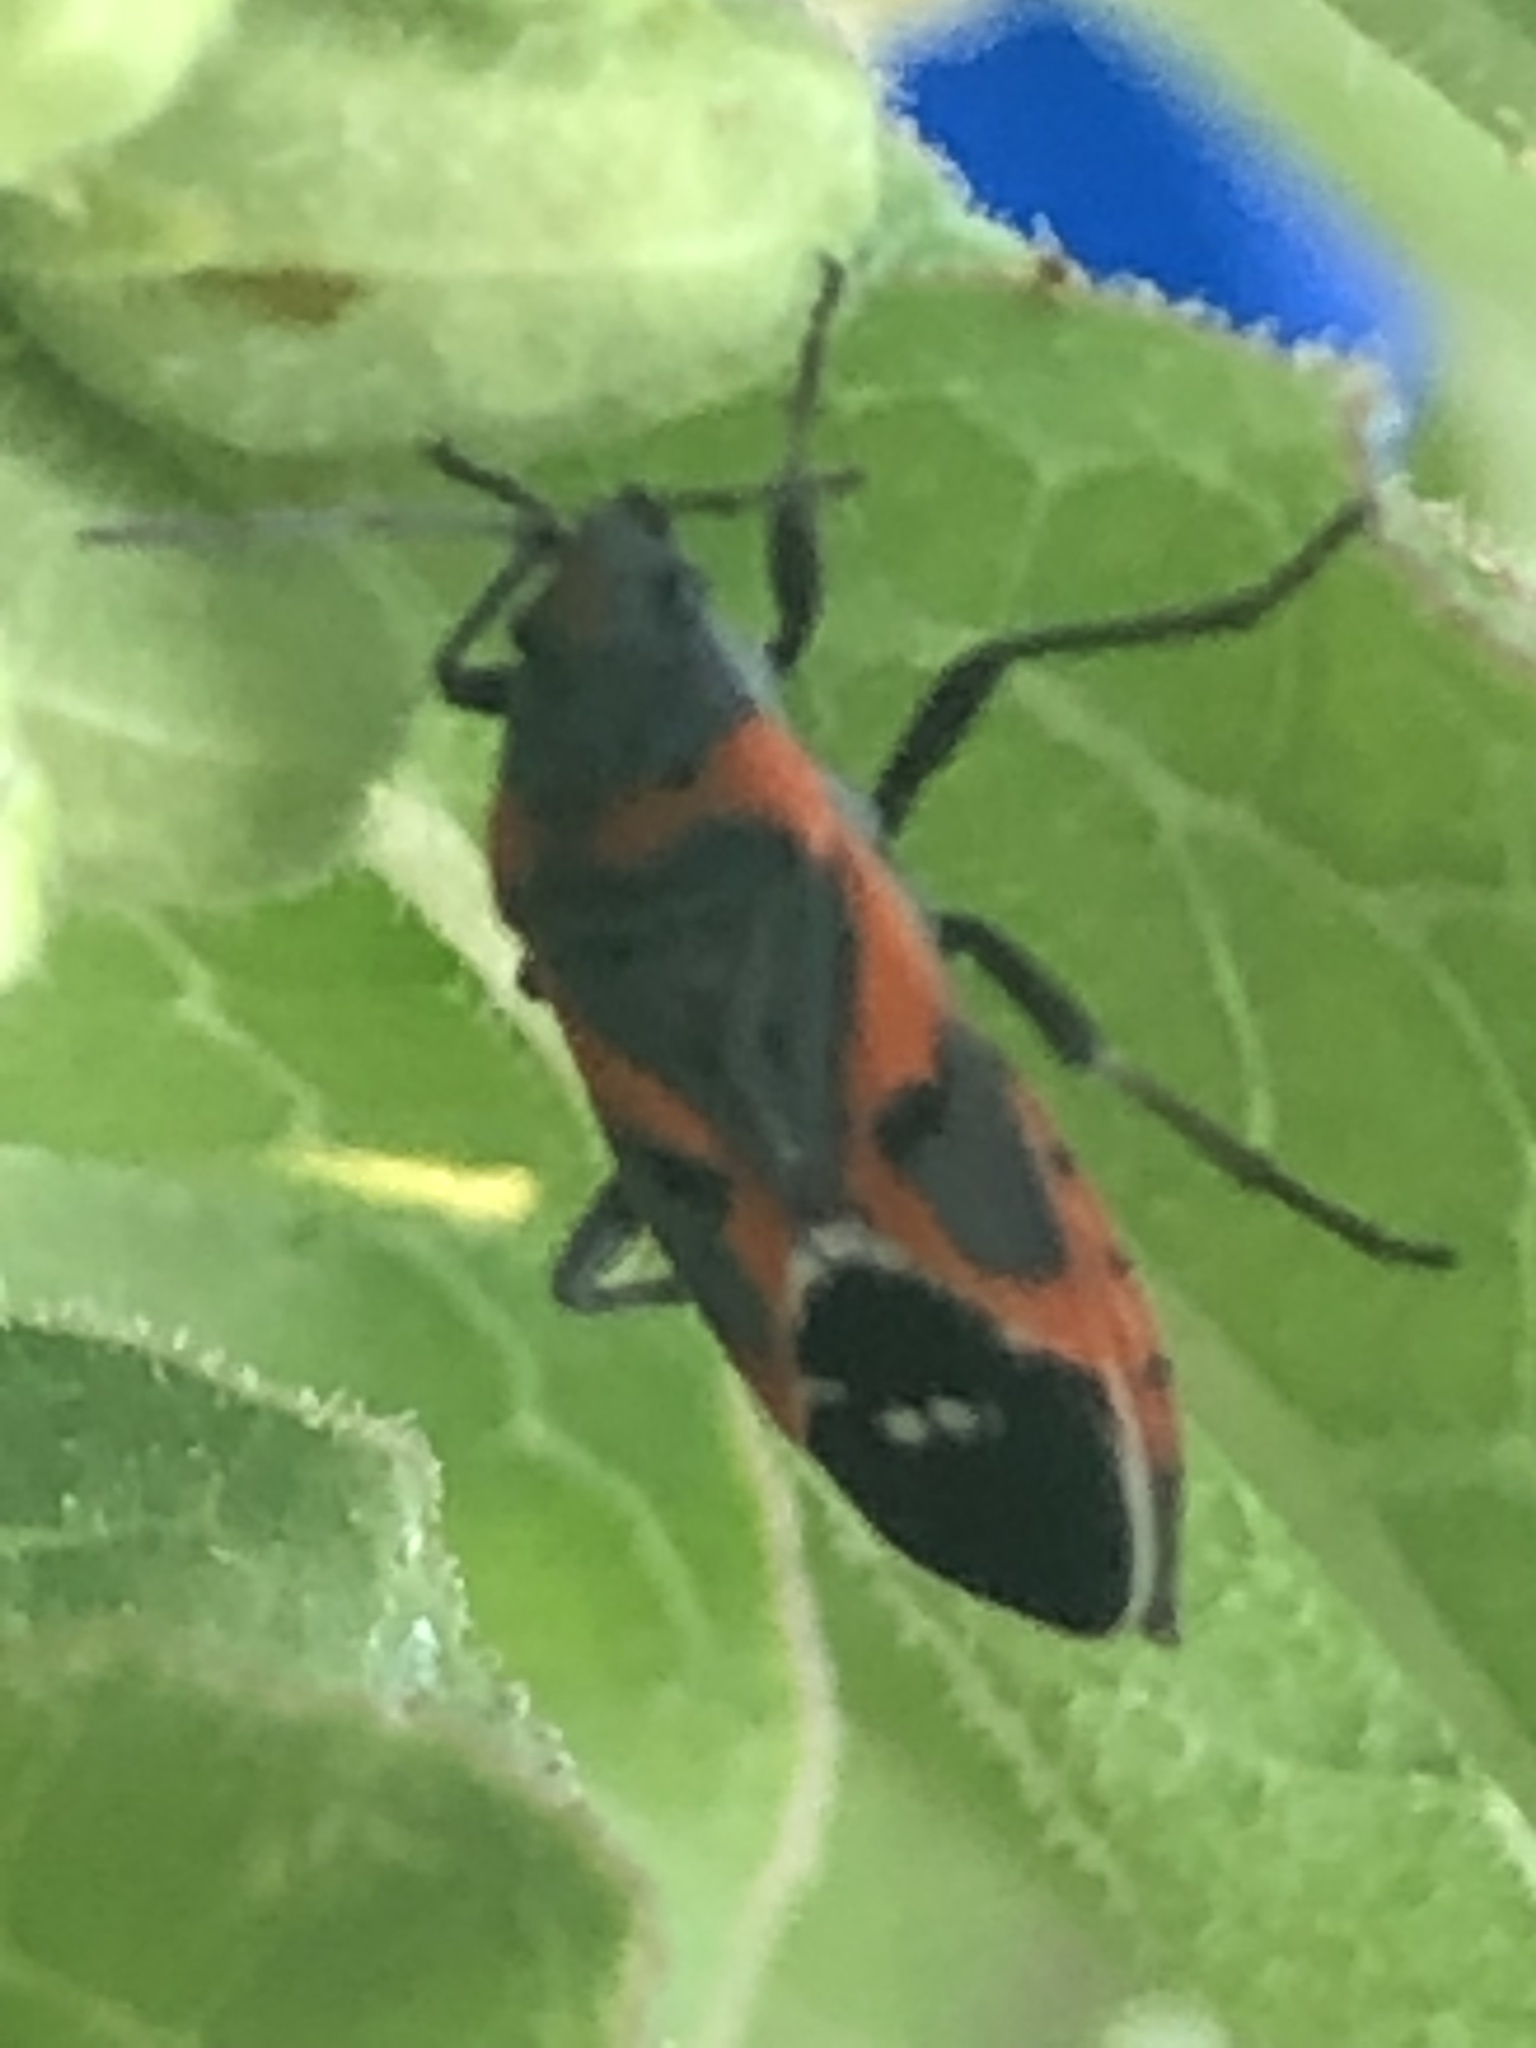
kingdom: Animalia
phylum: Arthropoda
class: Insecta
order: Hemiptera
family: Lygaeidae
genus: Lygaeus
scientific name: Lygaeus kalmii
